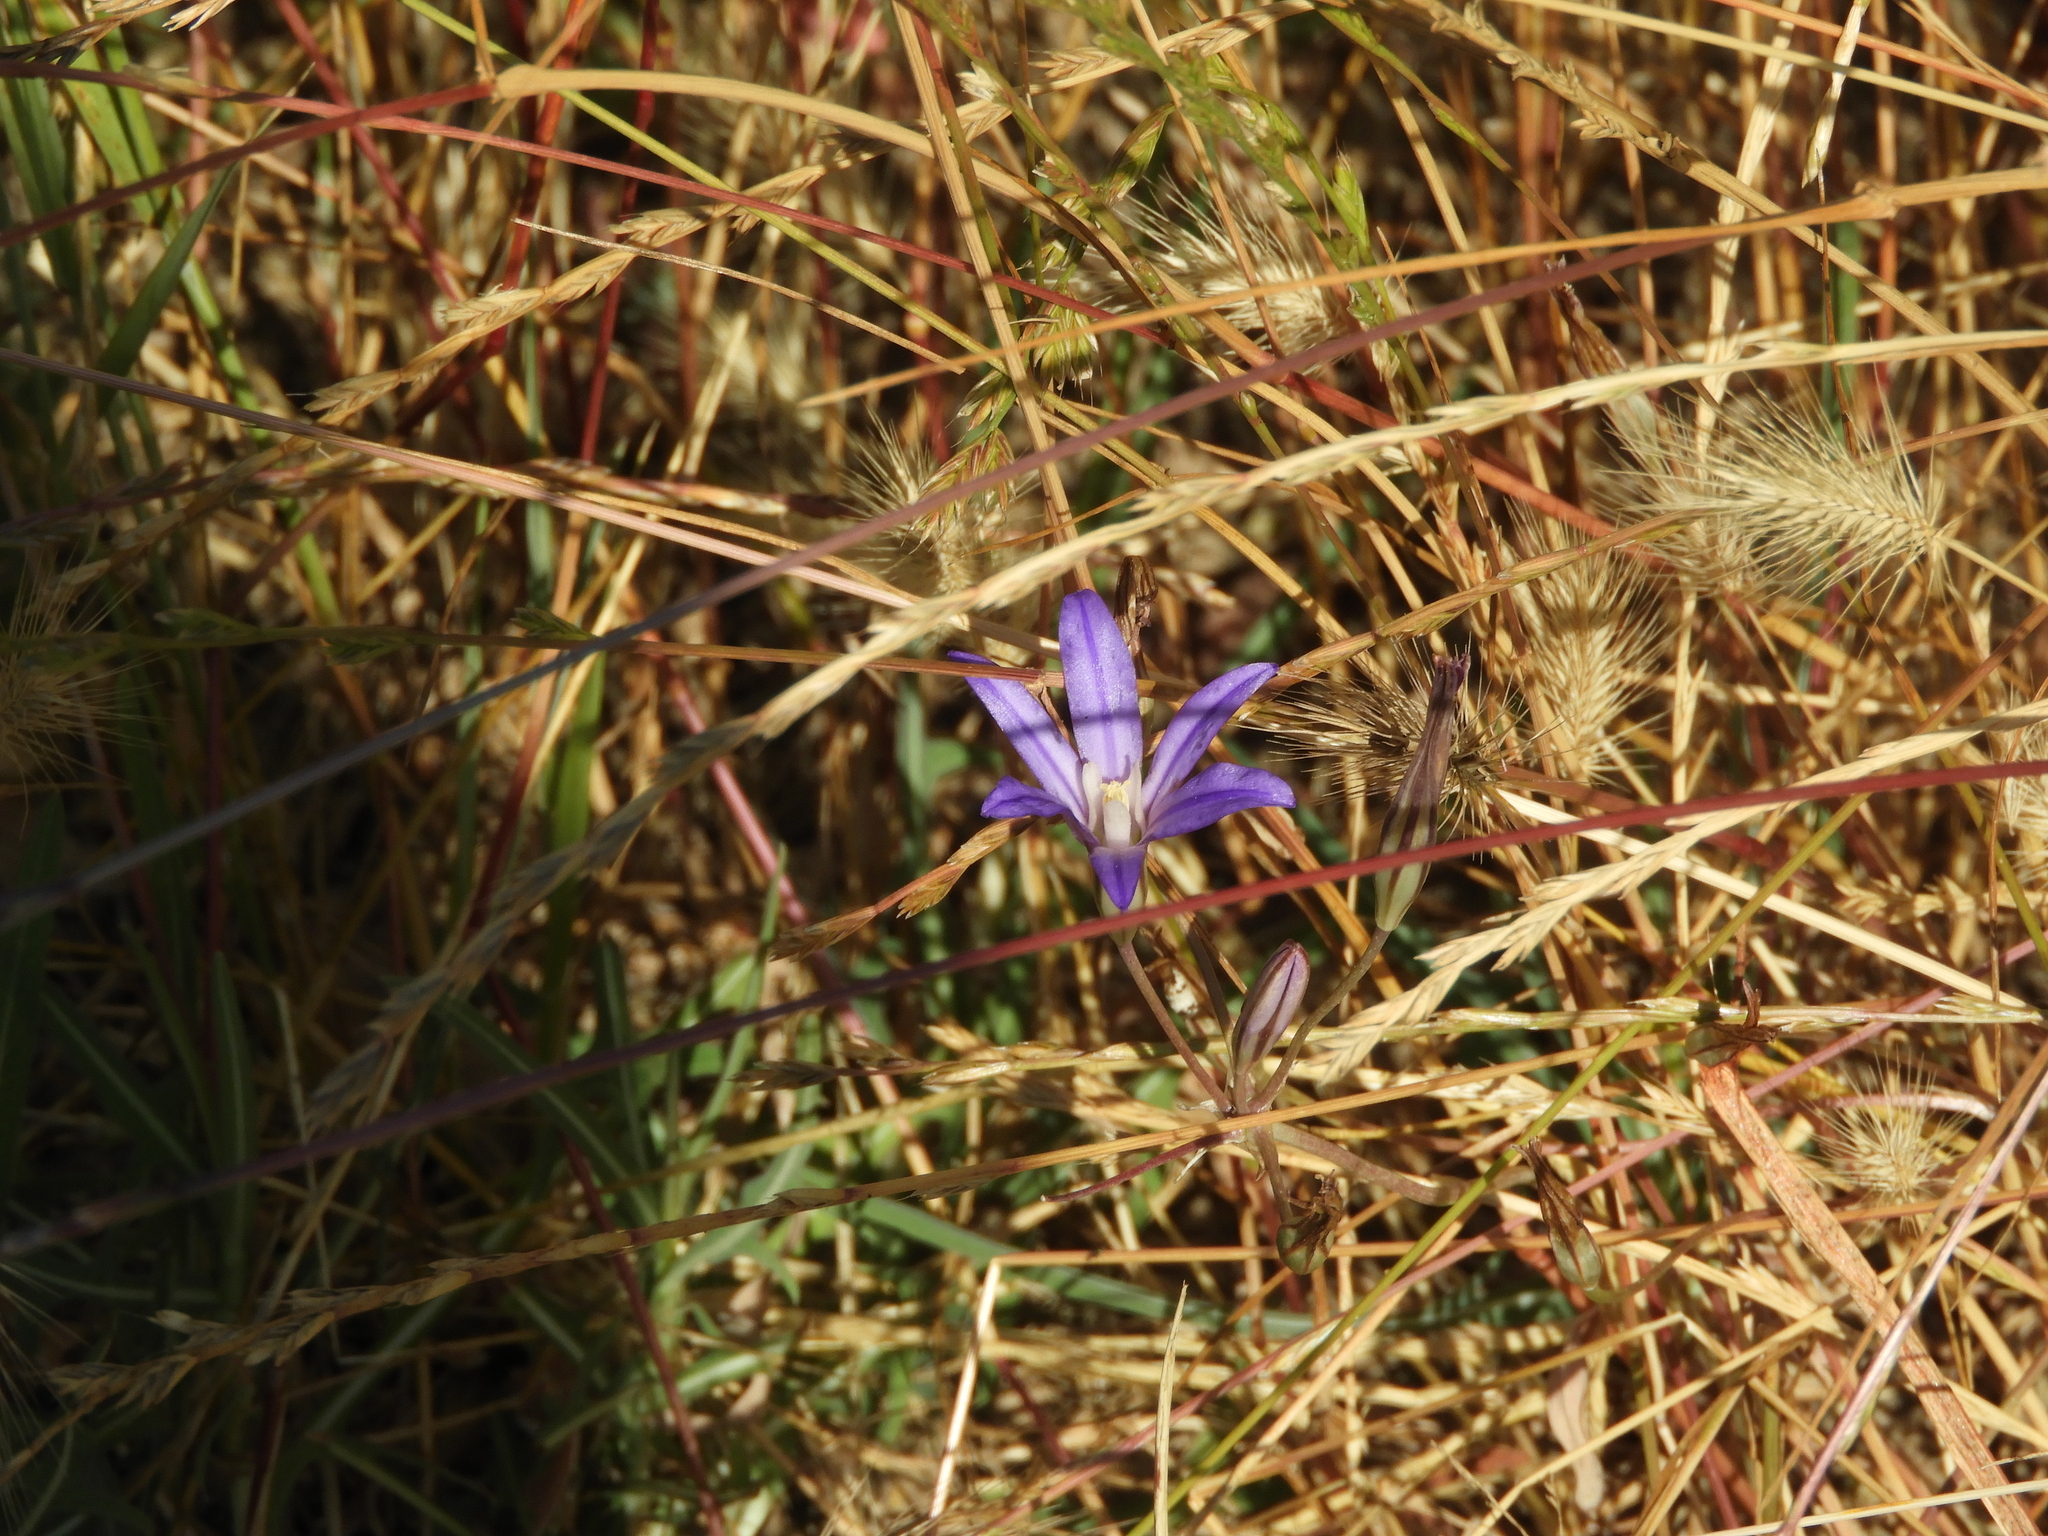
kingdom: Plantae
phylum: Tracheophyta
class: Liliopsida
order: Asparagales
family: Asparagaceae
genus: Brodiaea
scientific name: Brodiaea coronaria
